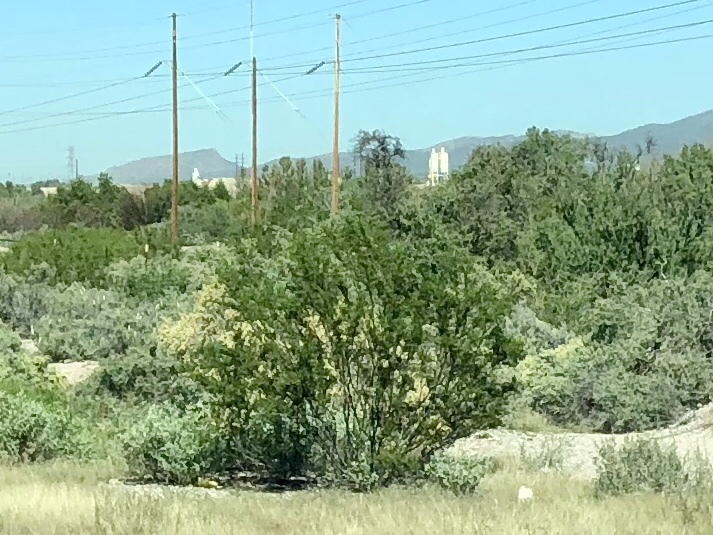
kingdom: Plantae
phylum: Tracheophyta
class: Magnoliopsida
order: Zygophyllales
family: Zygophyllaceae
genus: Larrea
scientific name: Larrea tridentata
